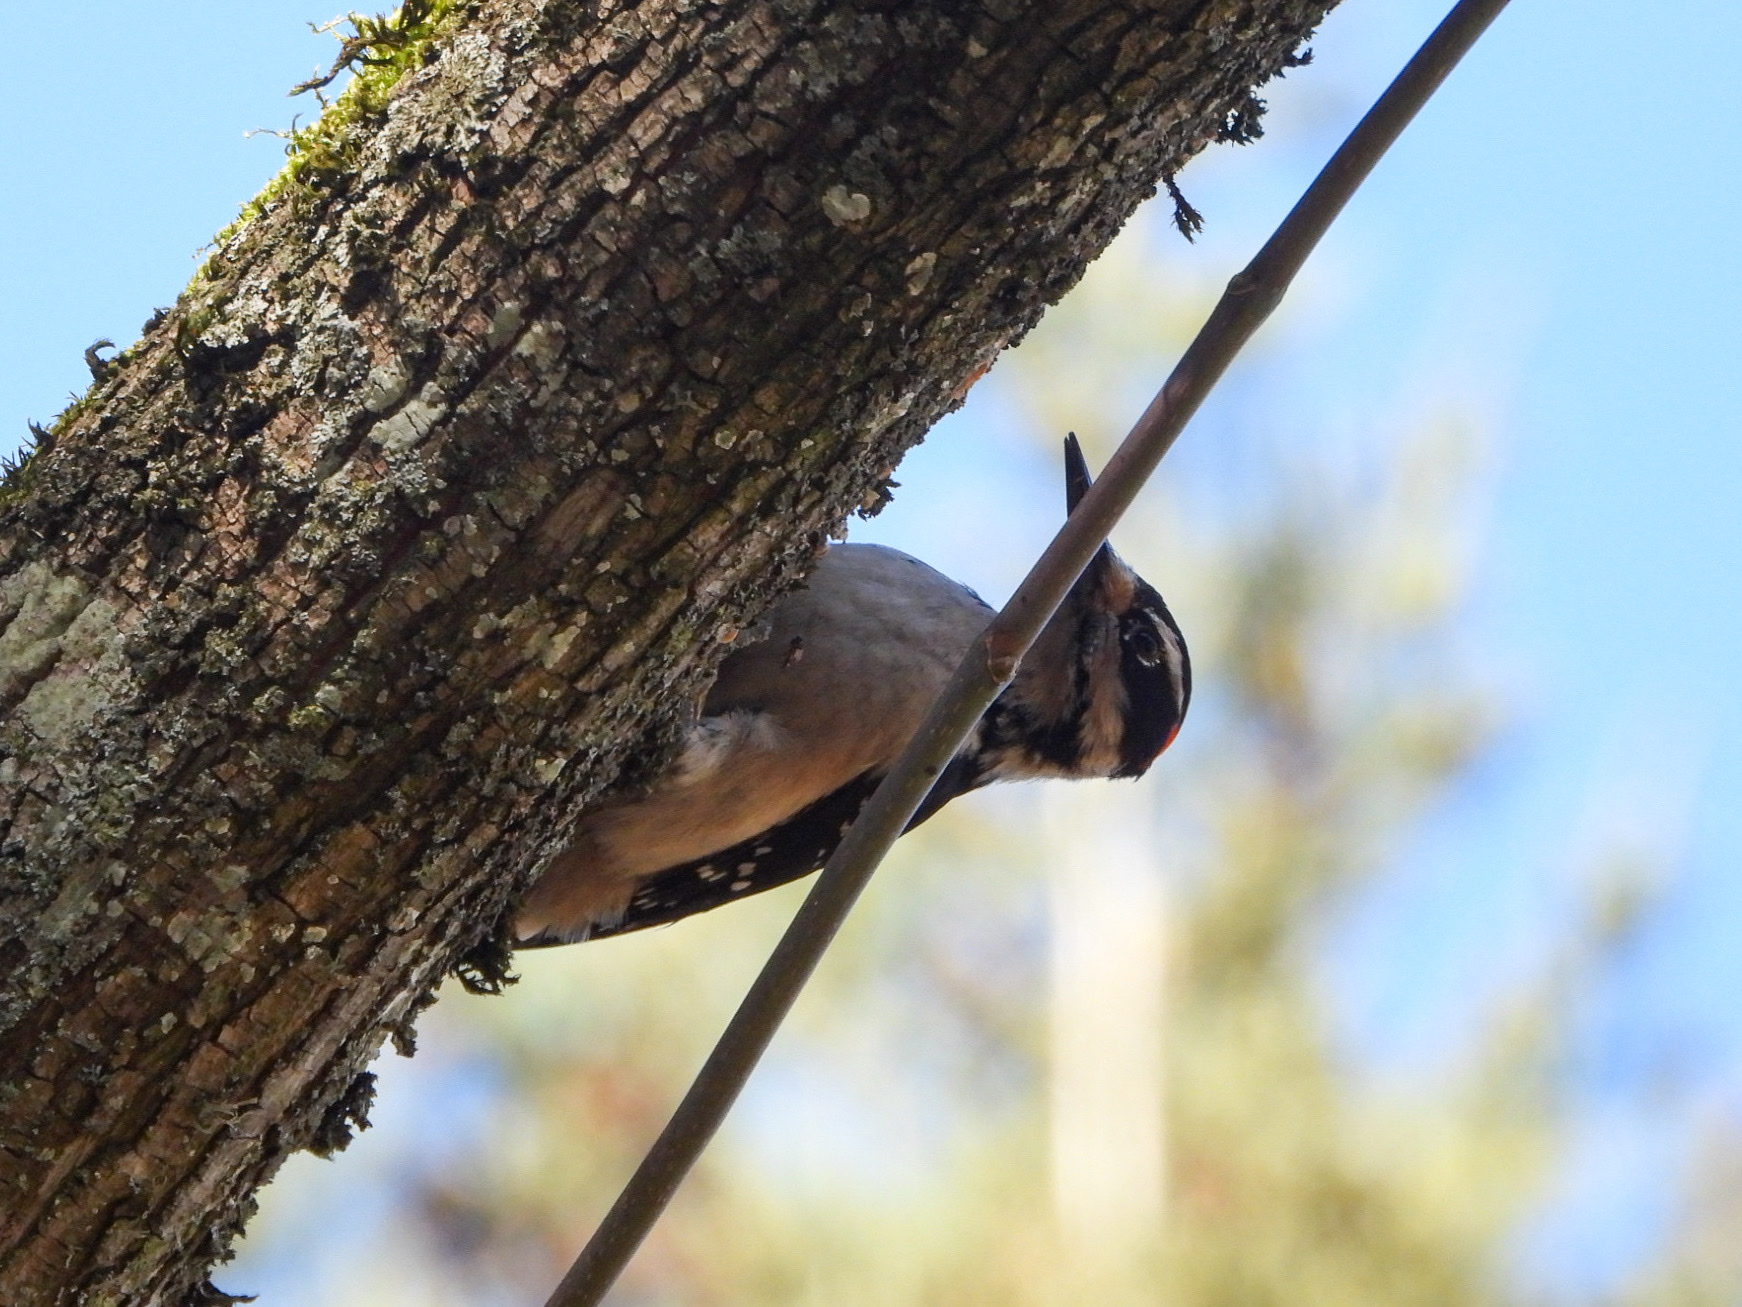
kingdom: Animalia
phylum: Chordata
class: Aves
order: Piciformes
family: Picidae
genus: Leuconotopicus
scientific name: Leuconotopicus villosus
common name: Hairy woodpecker
